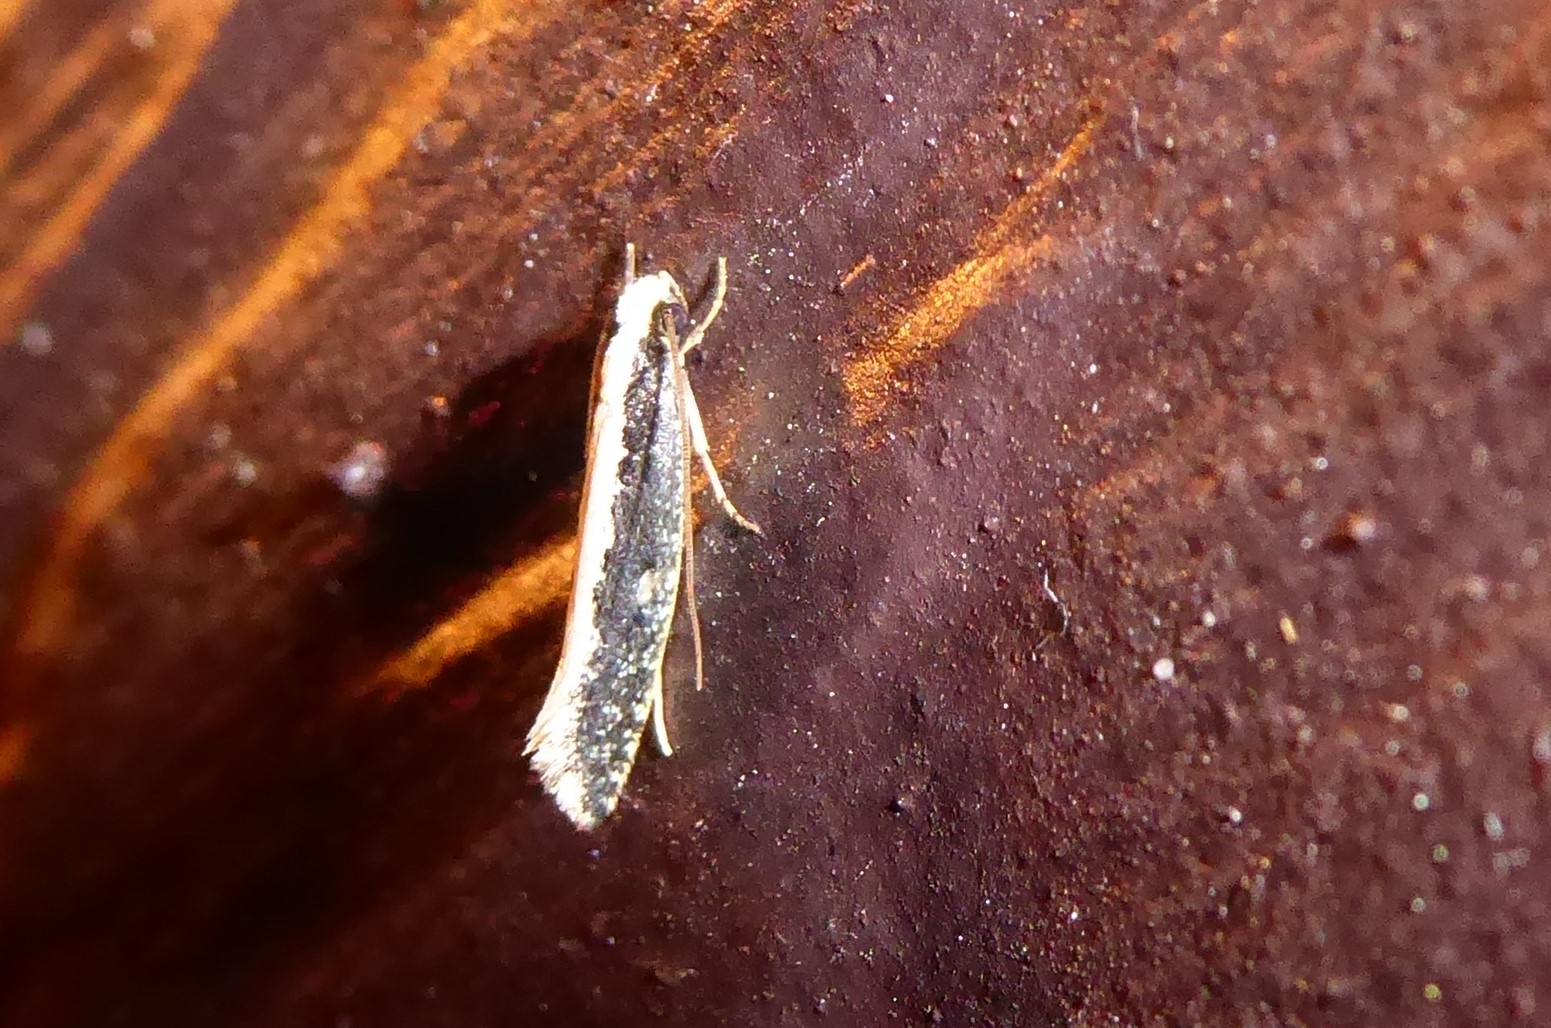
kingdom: Animalia
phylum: Arthropoda
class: Insecta
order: Lepidoptera
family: Tineidae
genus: Monopis
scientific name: Monopis ethelella
